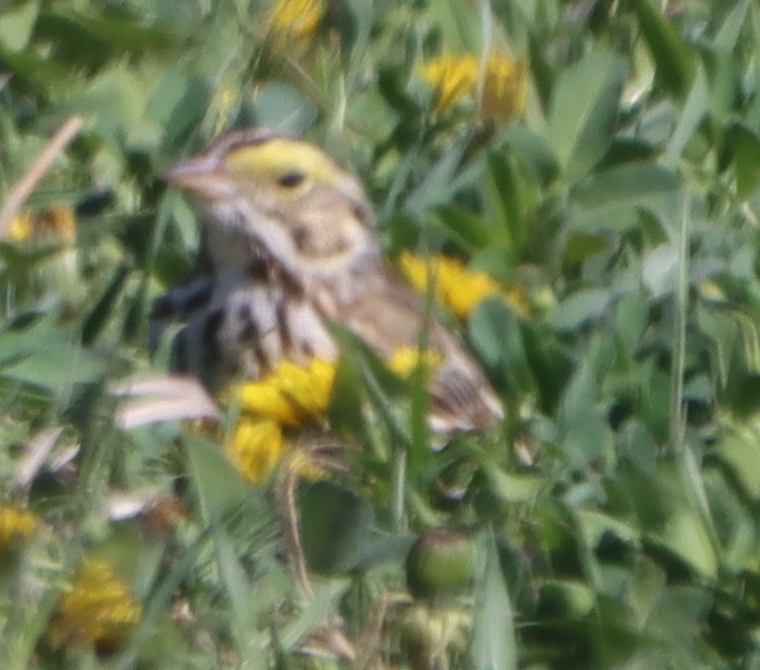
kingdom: Animalia
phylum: Chordata
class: Aves
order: Passeriformes
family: Passerellidae
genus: Passerculus
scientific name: Passerculus sandwichensis
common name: Savannah sparrow
